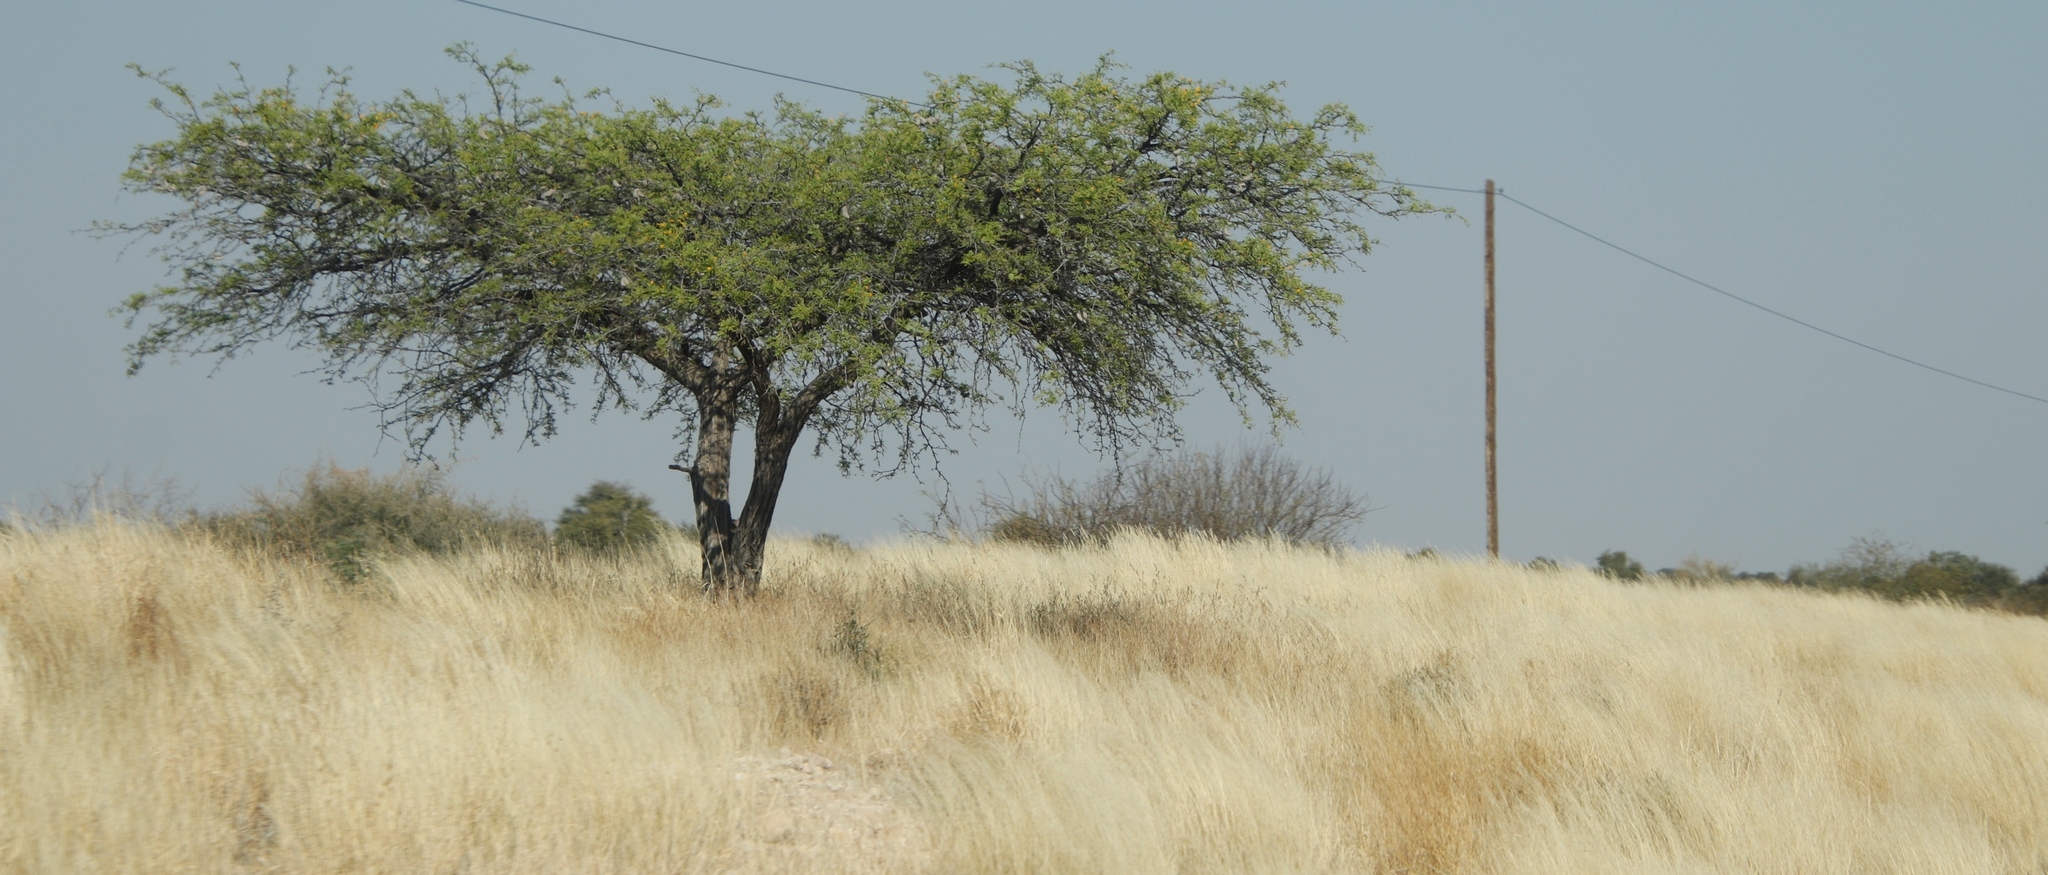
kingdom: Plantae
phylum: Tracheophyta
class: Magnoliopsida
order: Fabales
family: Fabaceae
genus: Vachellia
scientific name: Vachellia erioloba
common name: Camel thorn
